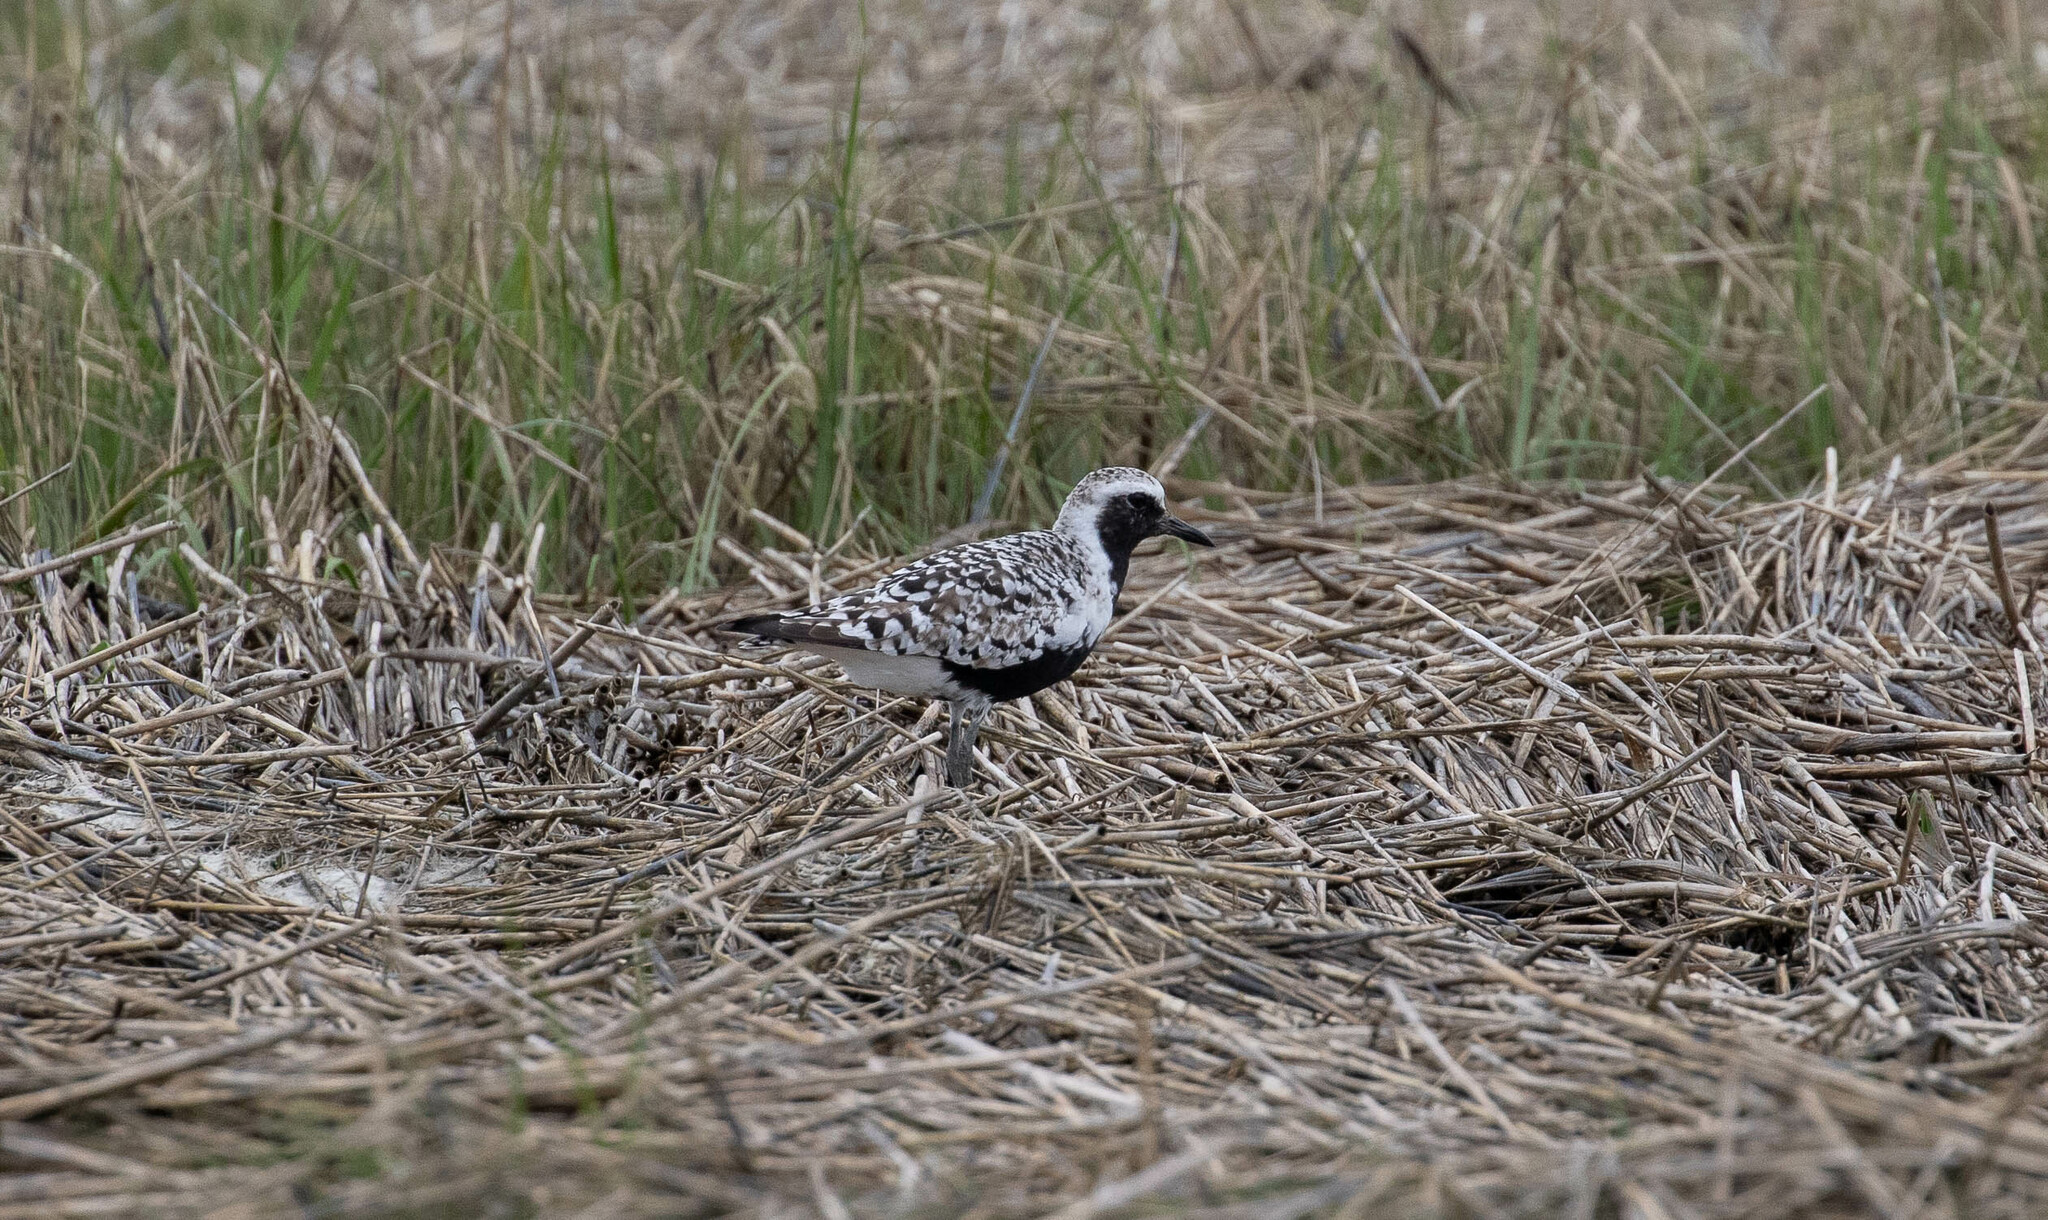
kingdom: Animalia
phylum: Chordata
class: Aves
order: Charadriiformes
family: Charadriidae
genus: Pluvialis
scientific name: Pluvialis squatarola
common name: Grey plover
